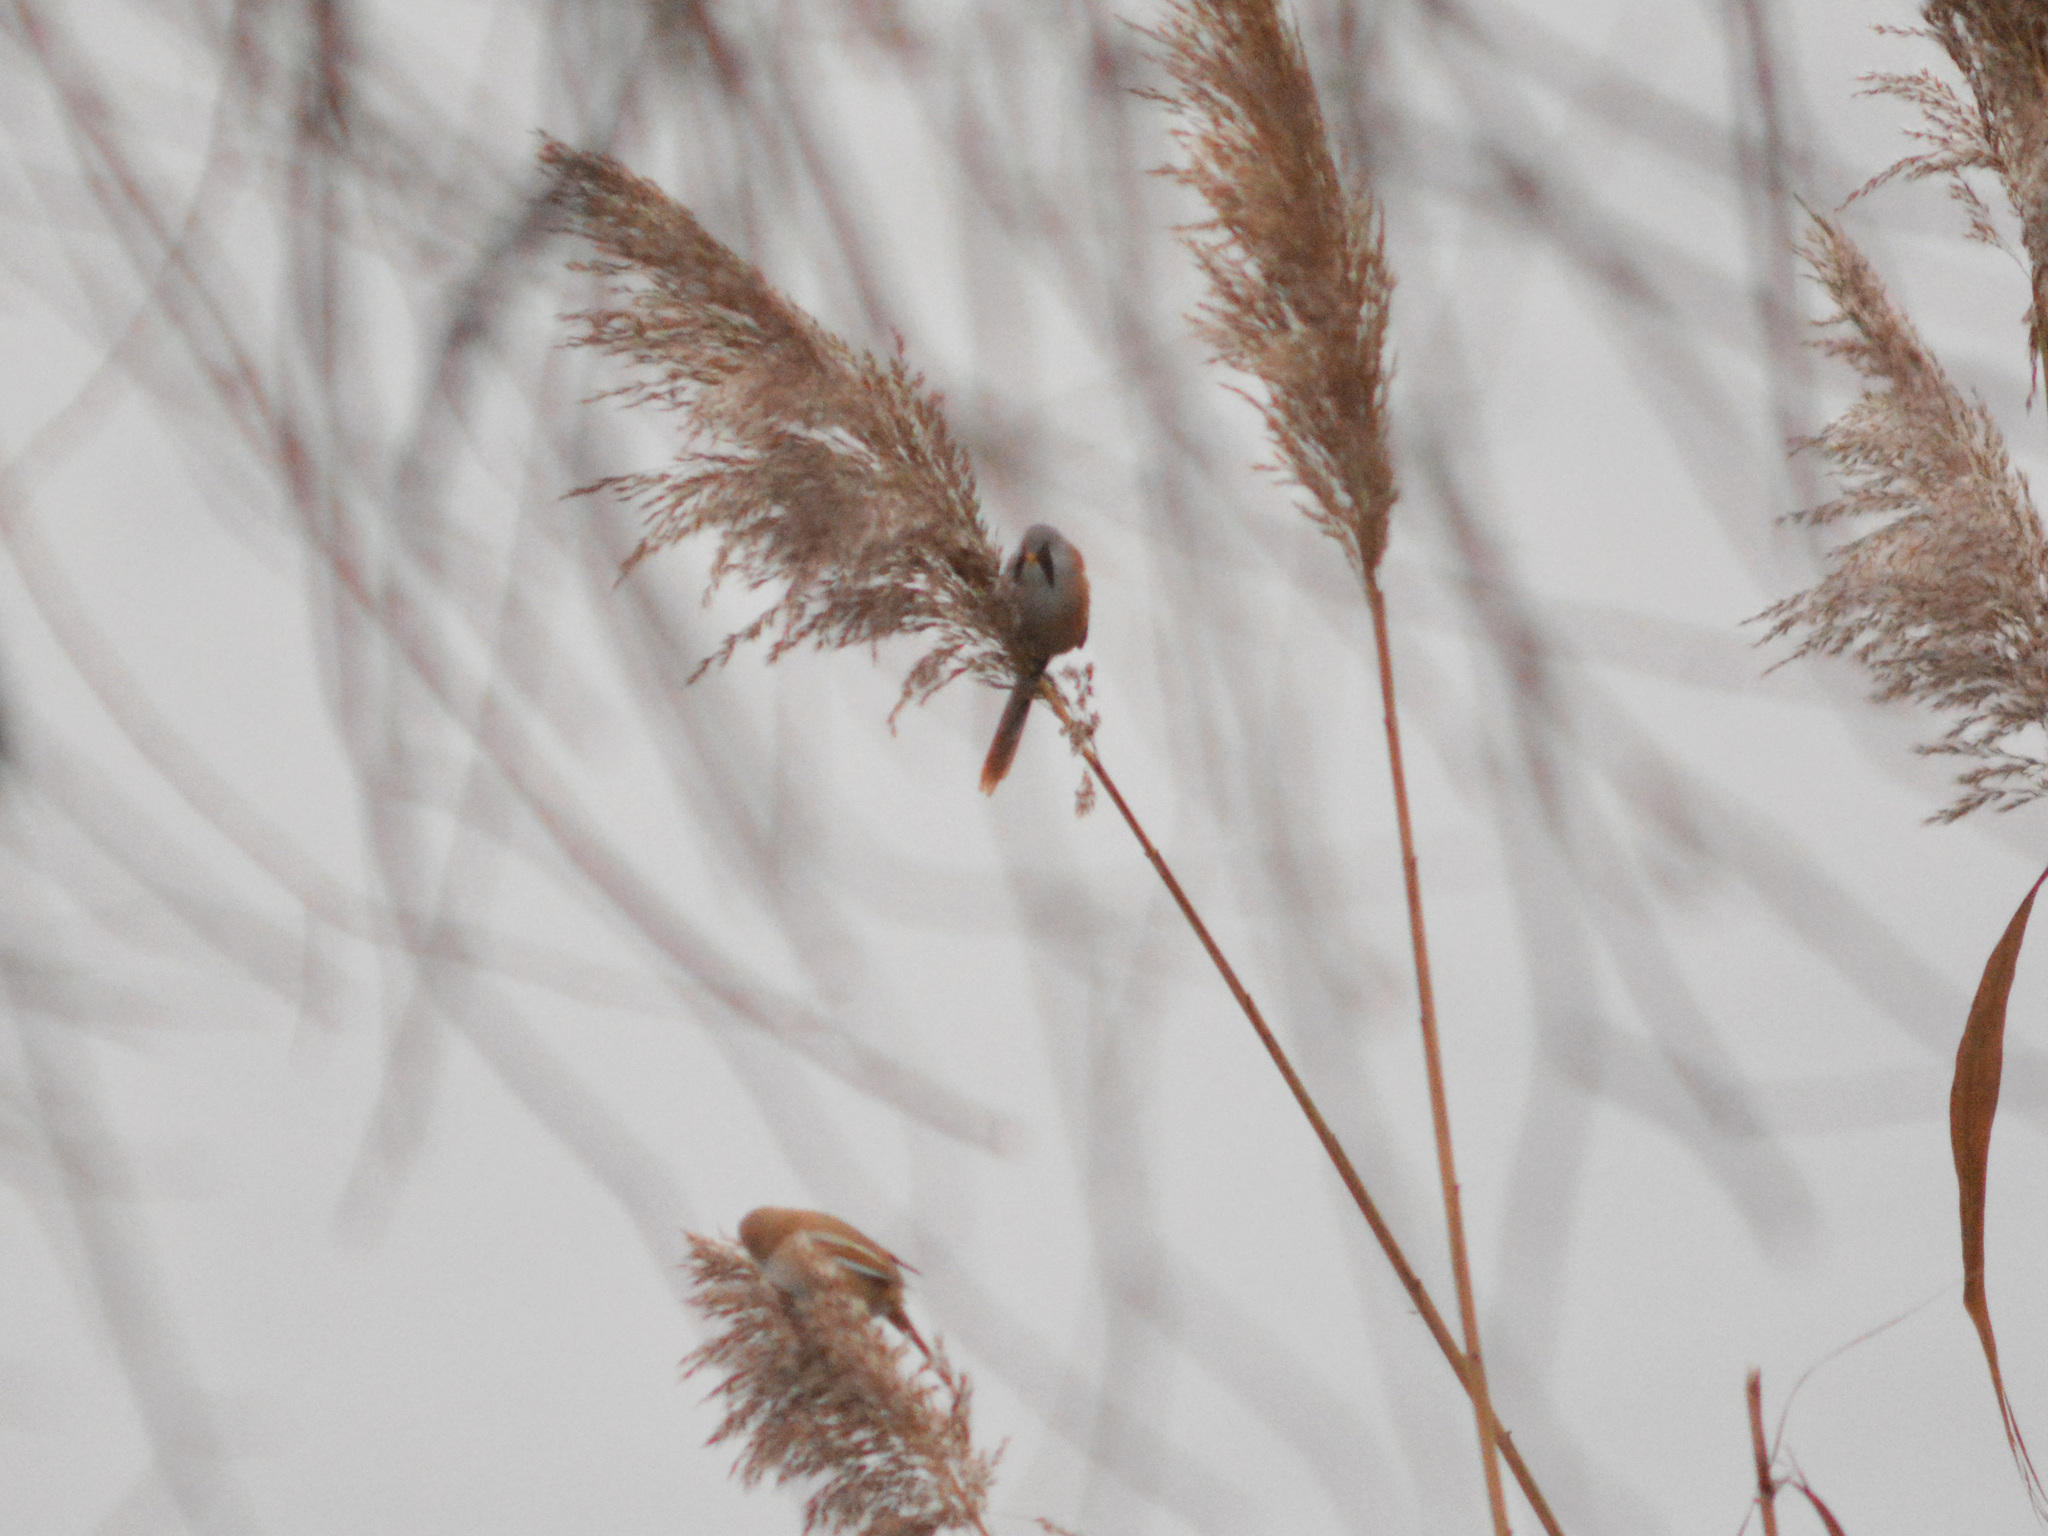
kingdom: Animalia
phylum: Chordata
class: Aves
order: Passeriformes
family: Panuridae
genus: Panurus
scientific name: Panurus biarmicus
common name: Bearded reedling
